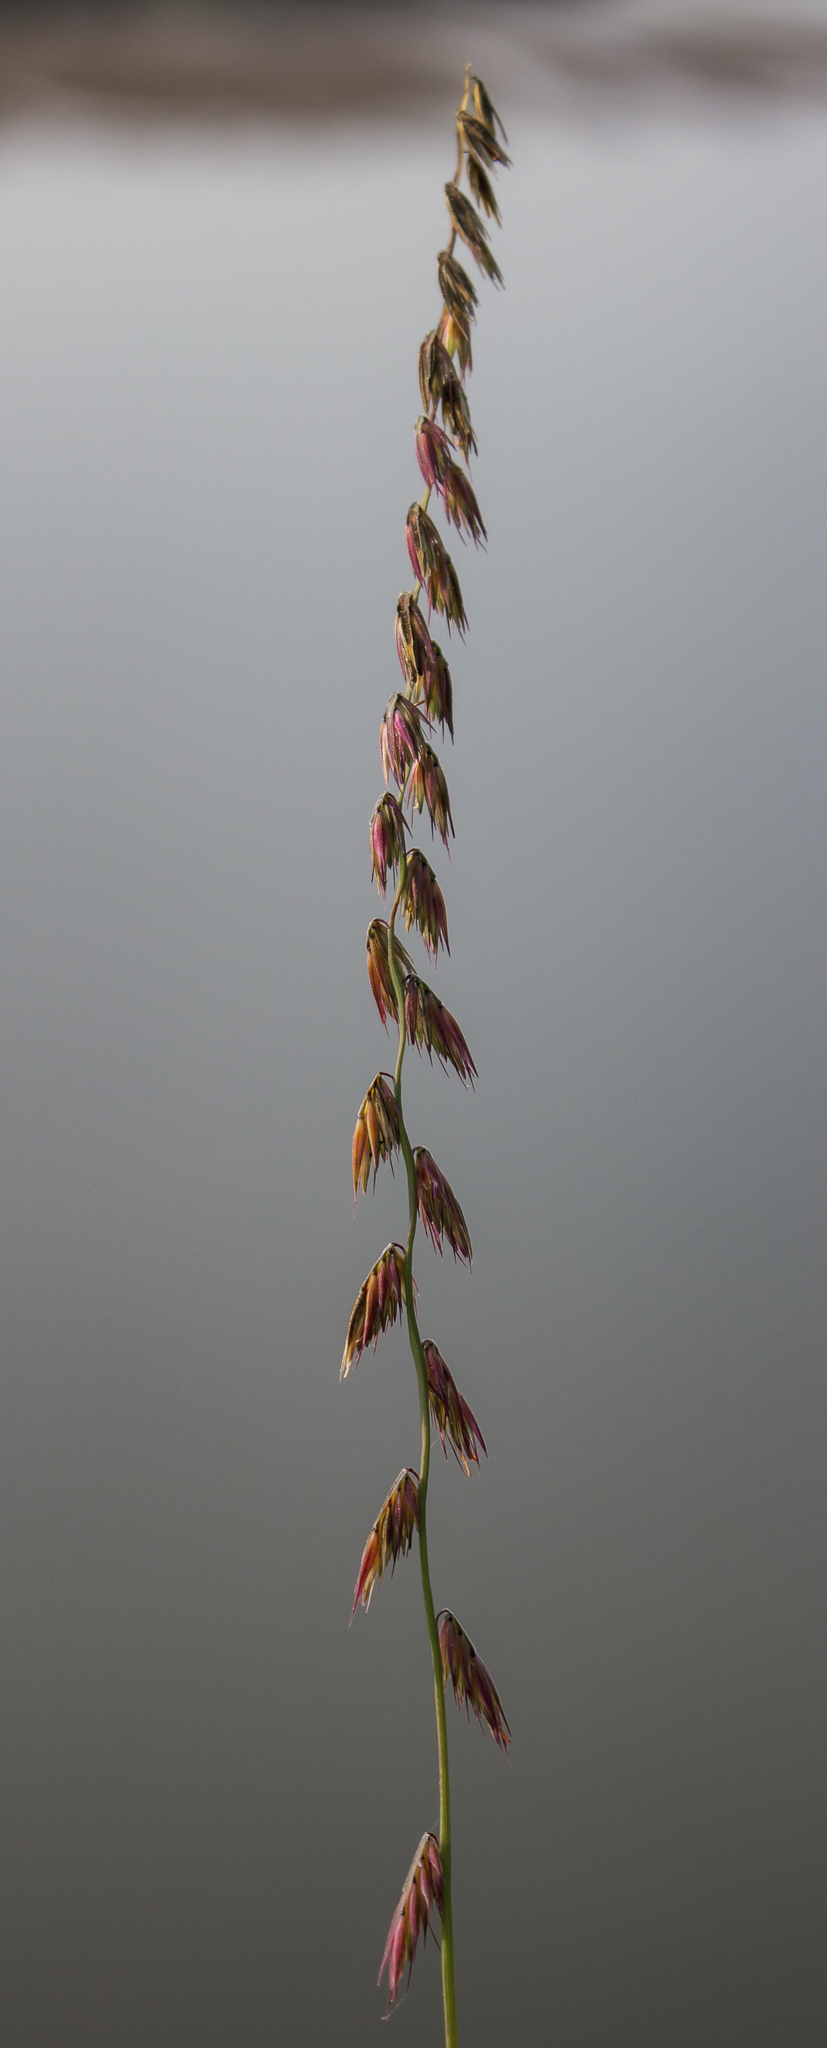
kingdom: Plantae
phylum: Tracheophyta
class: Liliopsida
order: Poales
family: Poaceae
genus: Bouteloua
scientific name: Bouteloua curtipendula
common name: Side-oats grama
